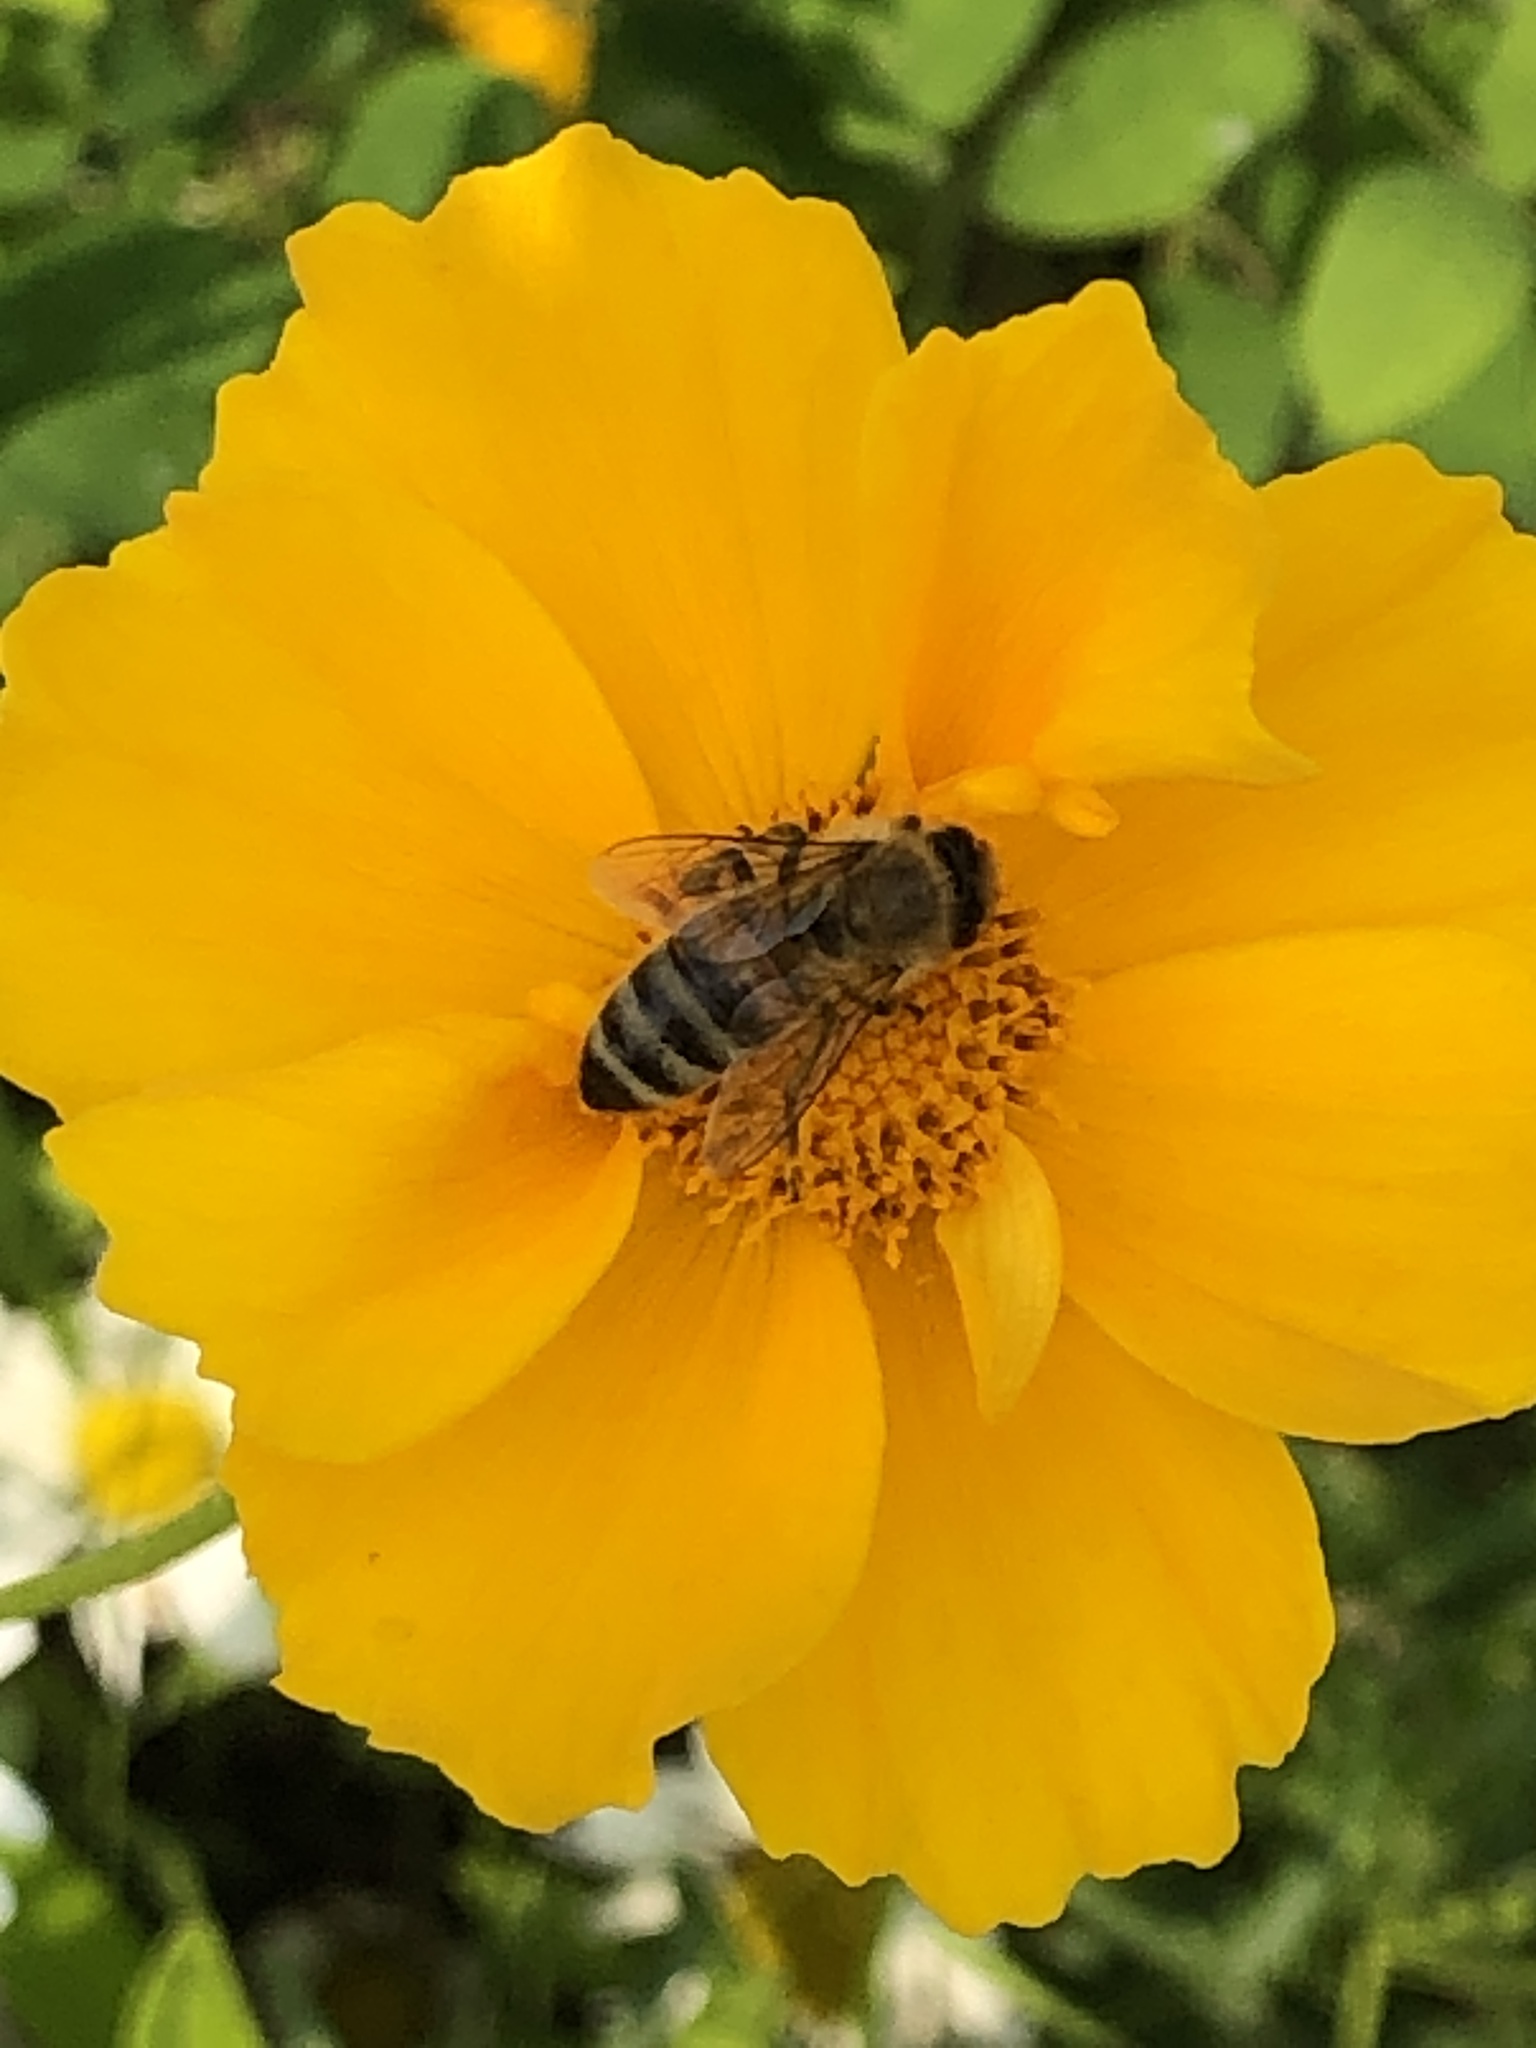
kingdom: Animalia
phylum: Arthropoda
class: Insecta
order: Hymenoptera
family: Apidae
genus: Apis
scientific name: Apis mellifera
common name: Honey bee
